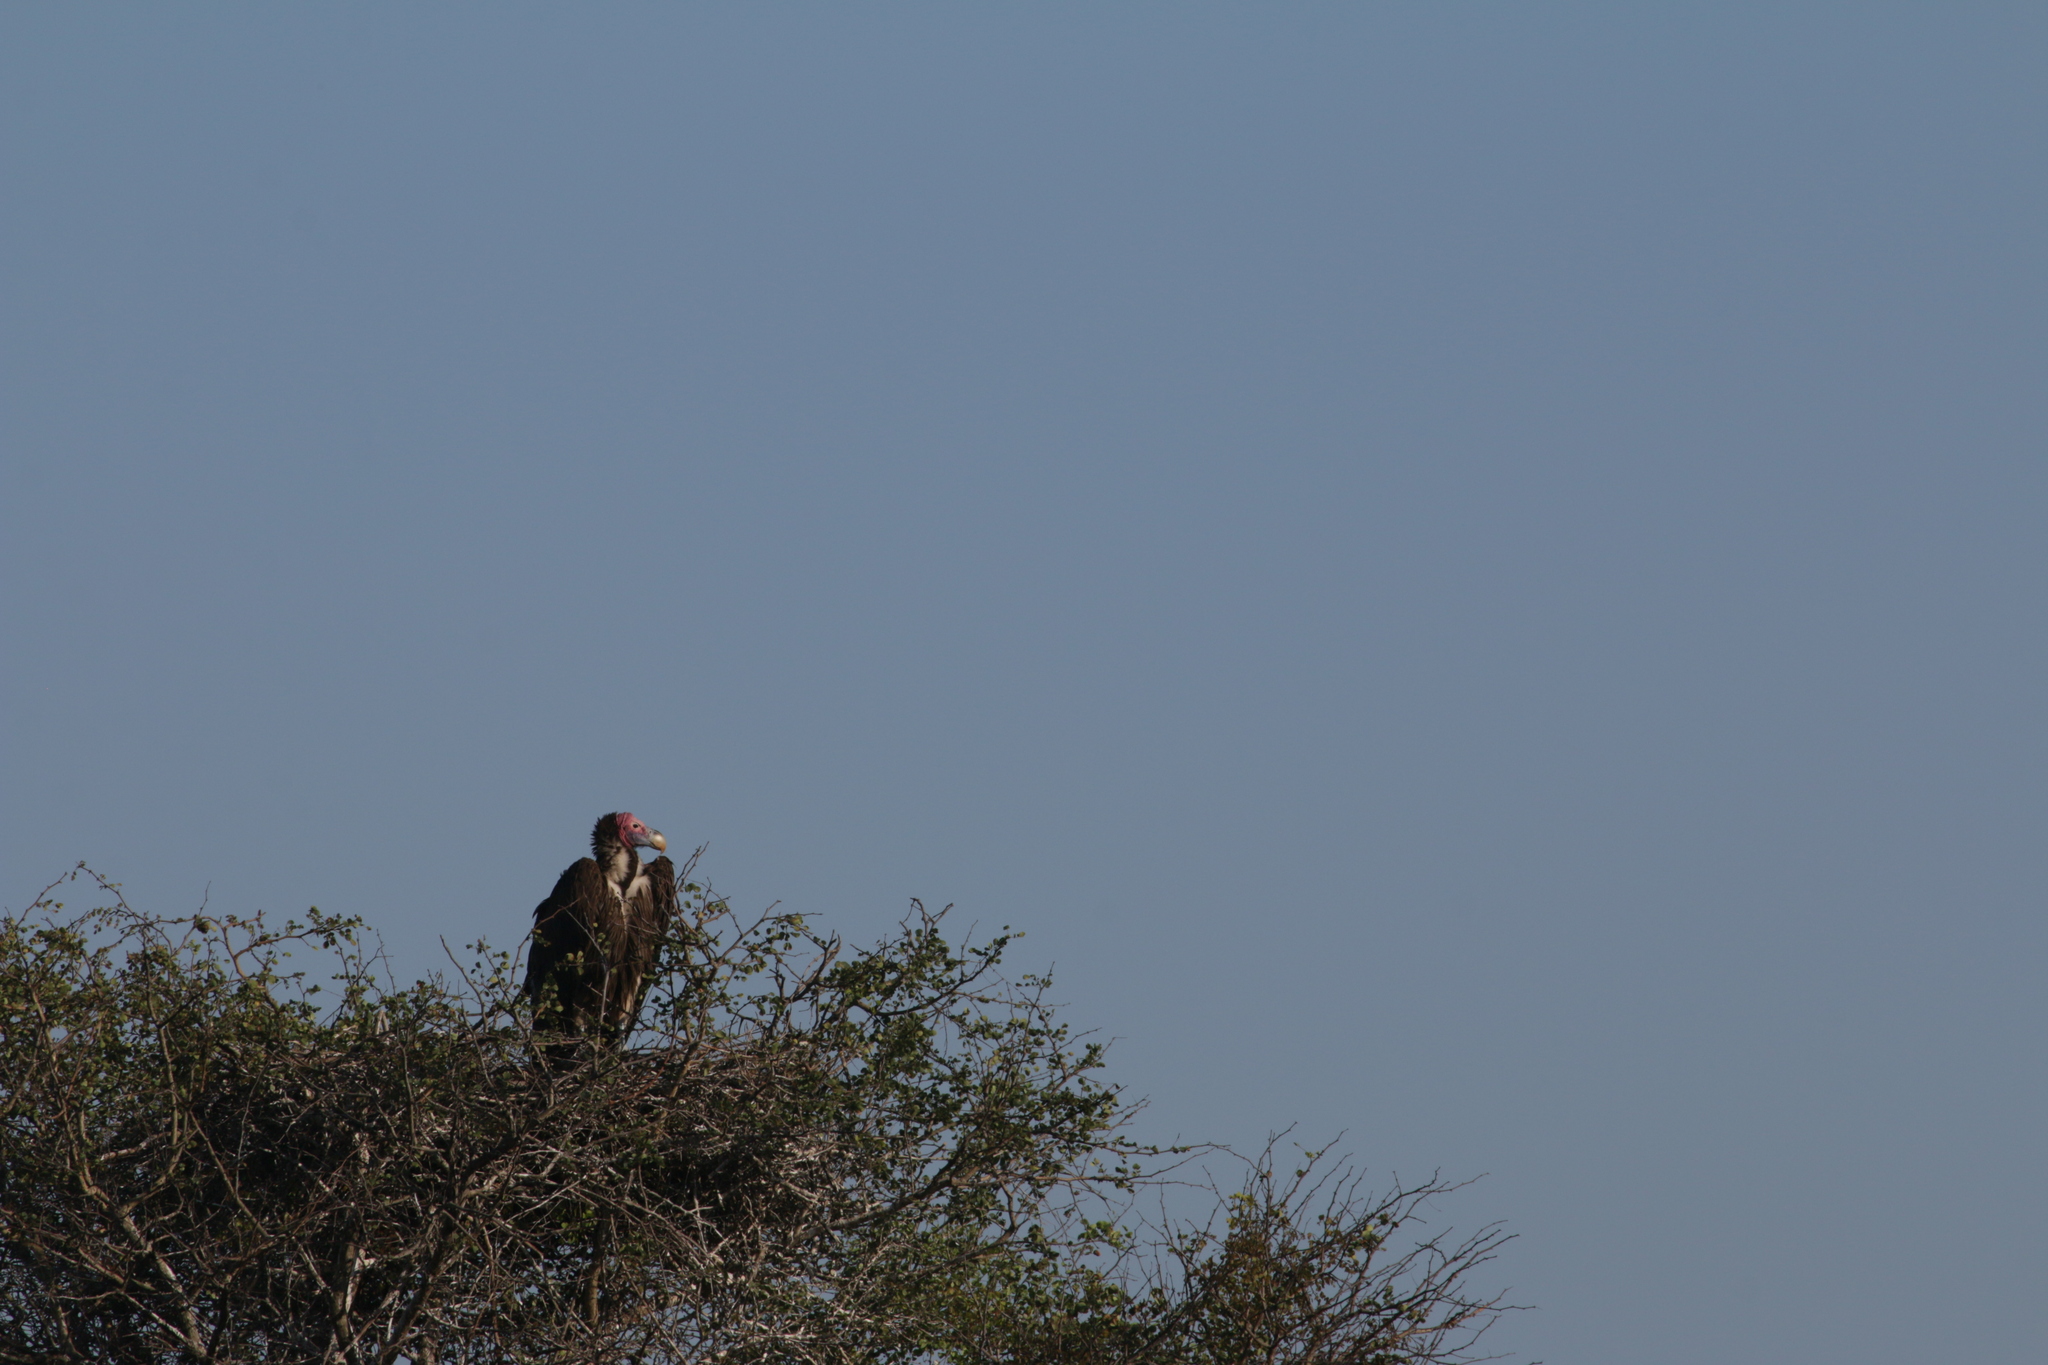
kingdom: Animalia
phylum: Chordata
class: Aves
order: Accipitriformes
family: Accipitridae
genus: Torgos
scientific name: Torgos tracheliotos
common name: Lappet-faced vulture
